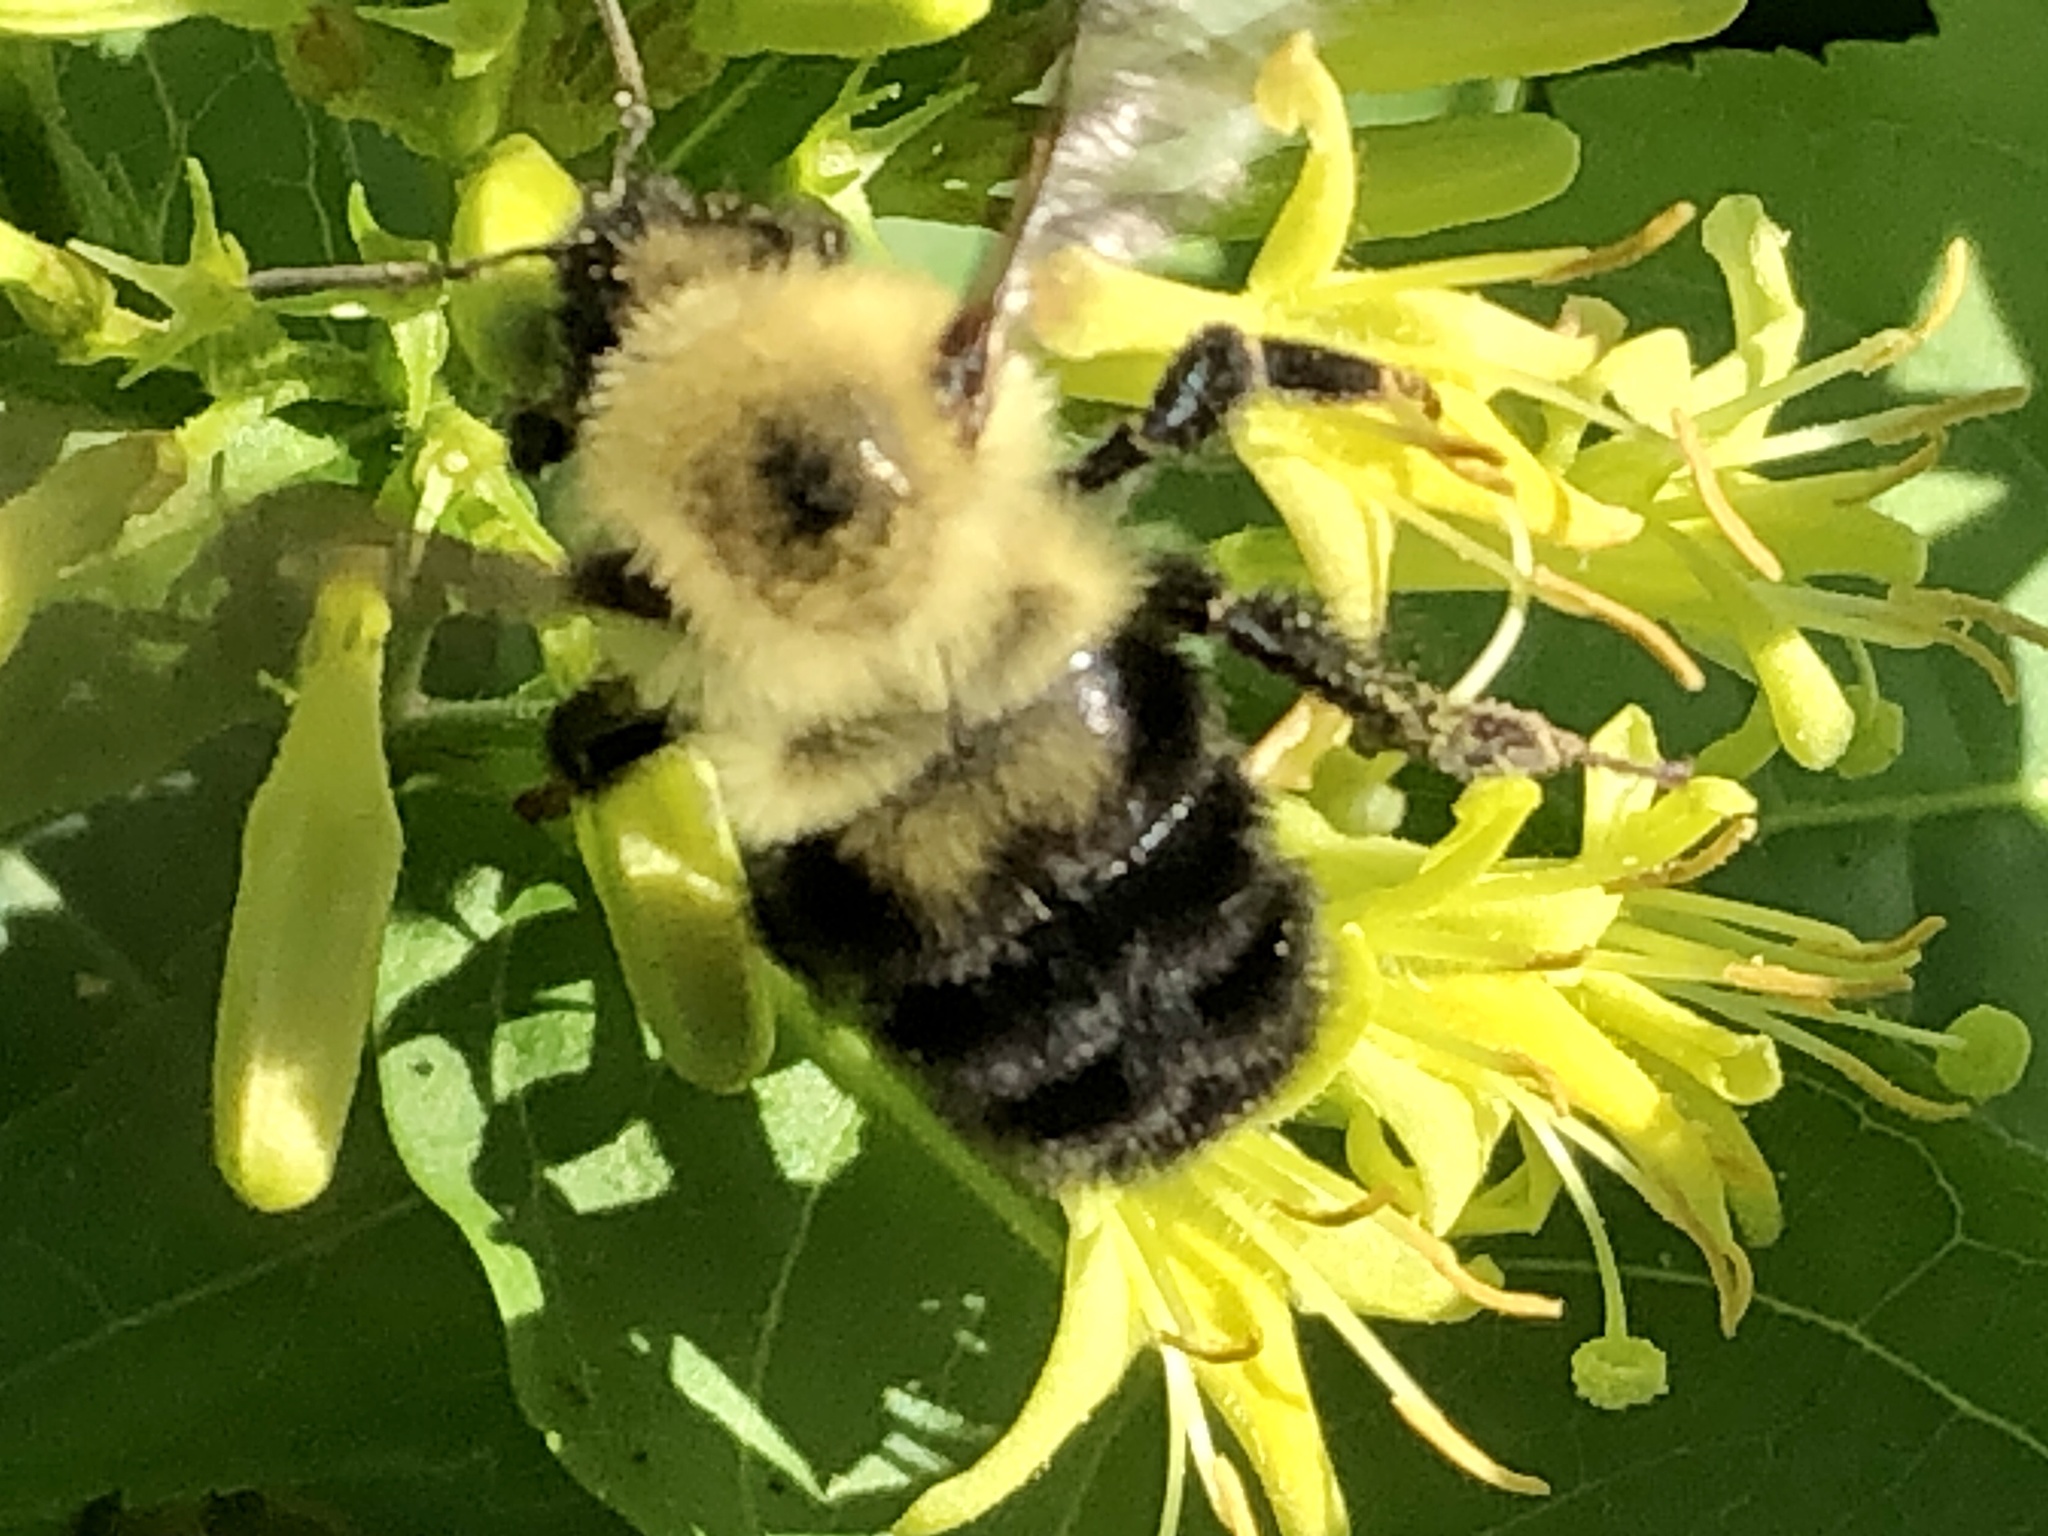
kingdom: Animalia
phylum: Arthropoda
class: Insecta
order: Hymenoptera
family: Apidae
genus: Bombus
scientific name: Bombus bimaculatus
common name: Two-spotted bumble bee
